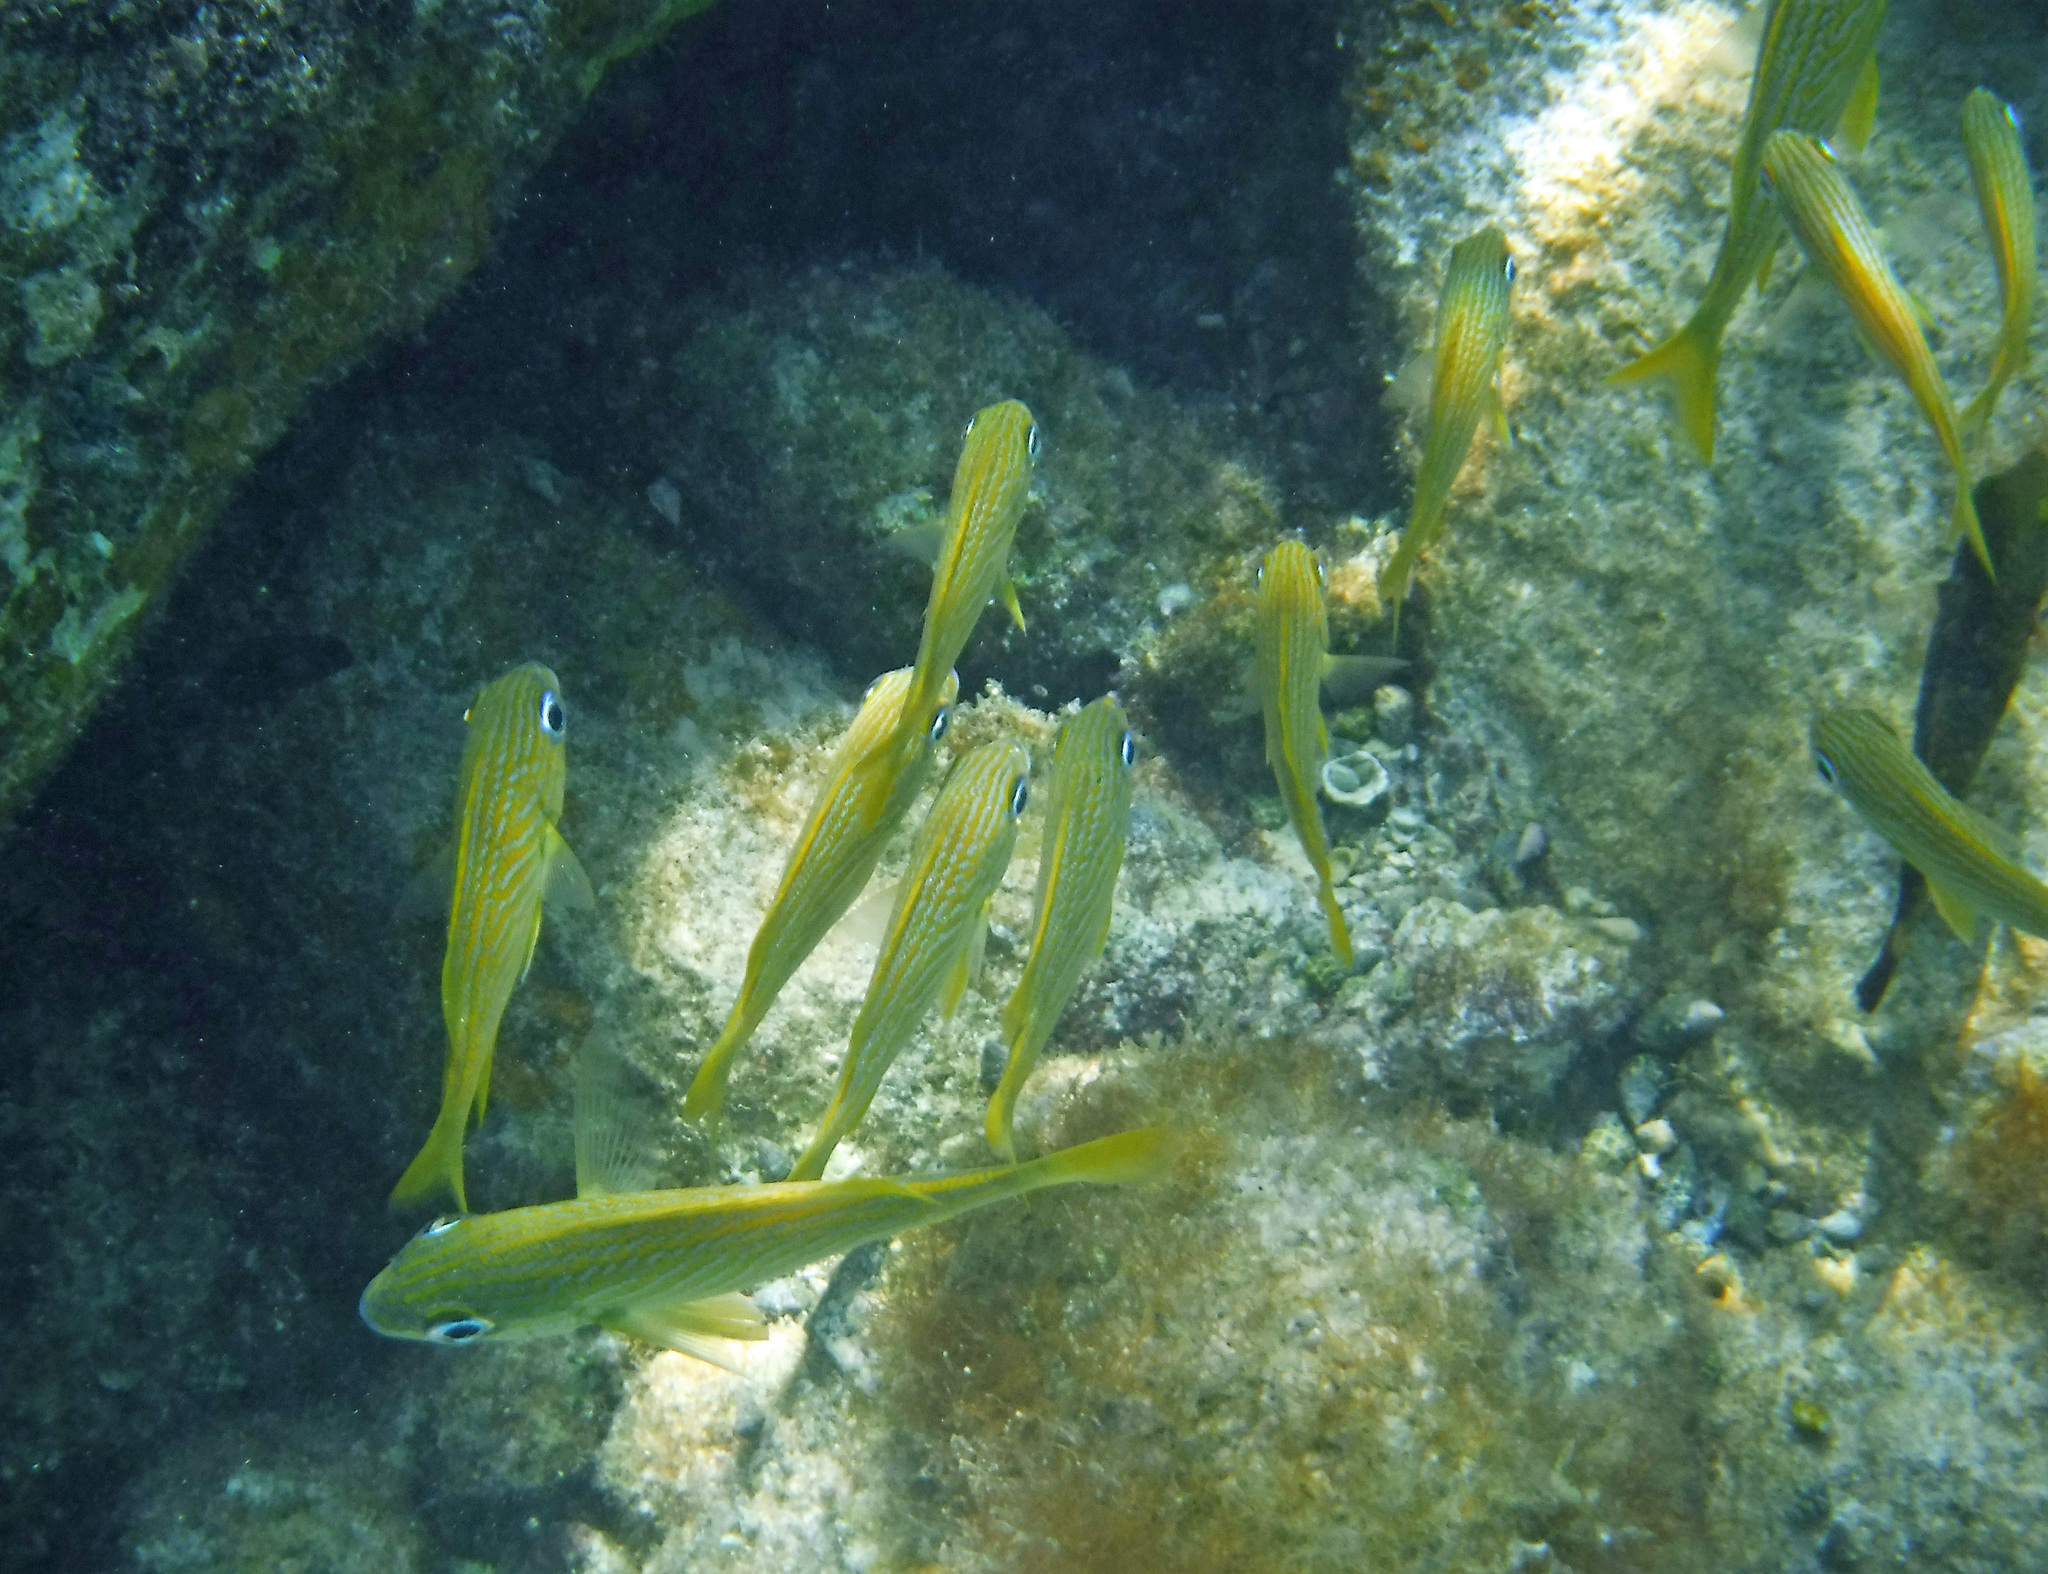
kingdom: Animalia
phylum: Chordata
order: Perciformes
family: Haemulidae
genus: Haemulon
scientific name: Haemulon flavolineatum
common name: French grunt
